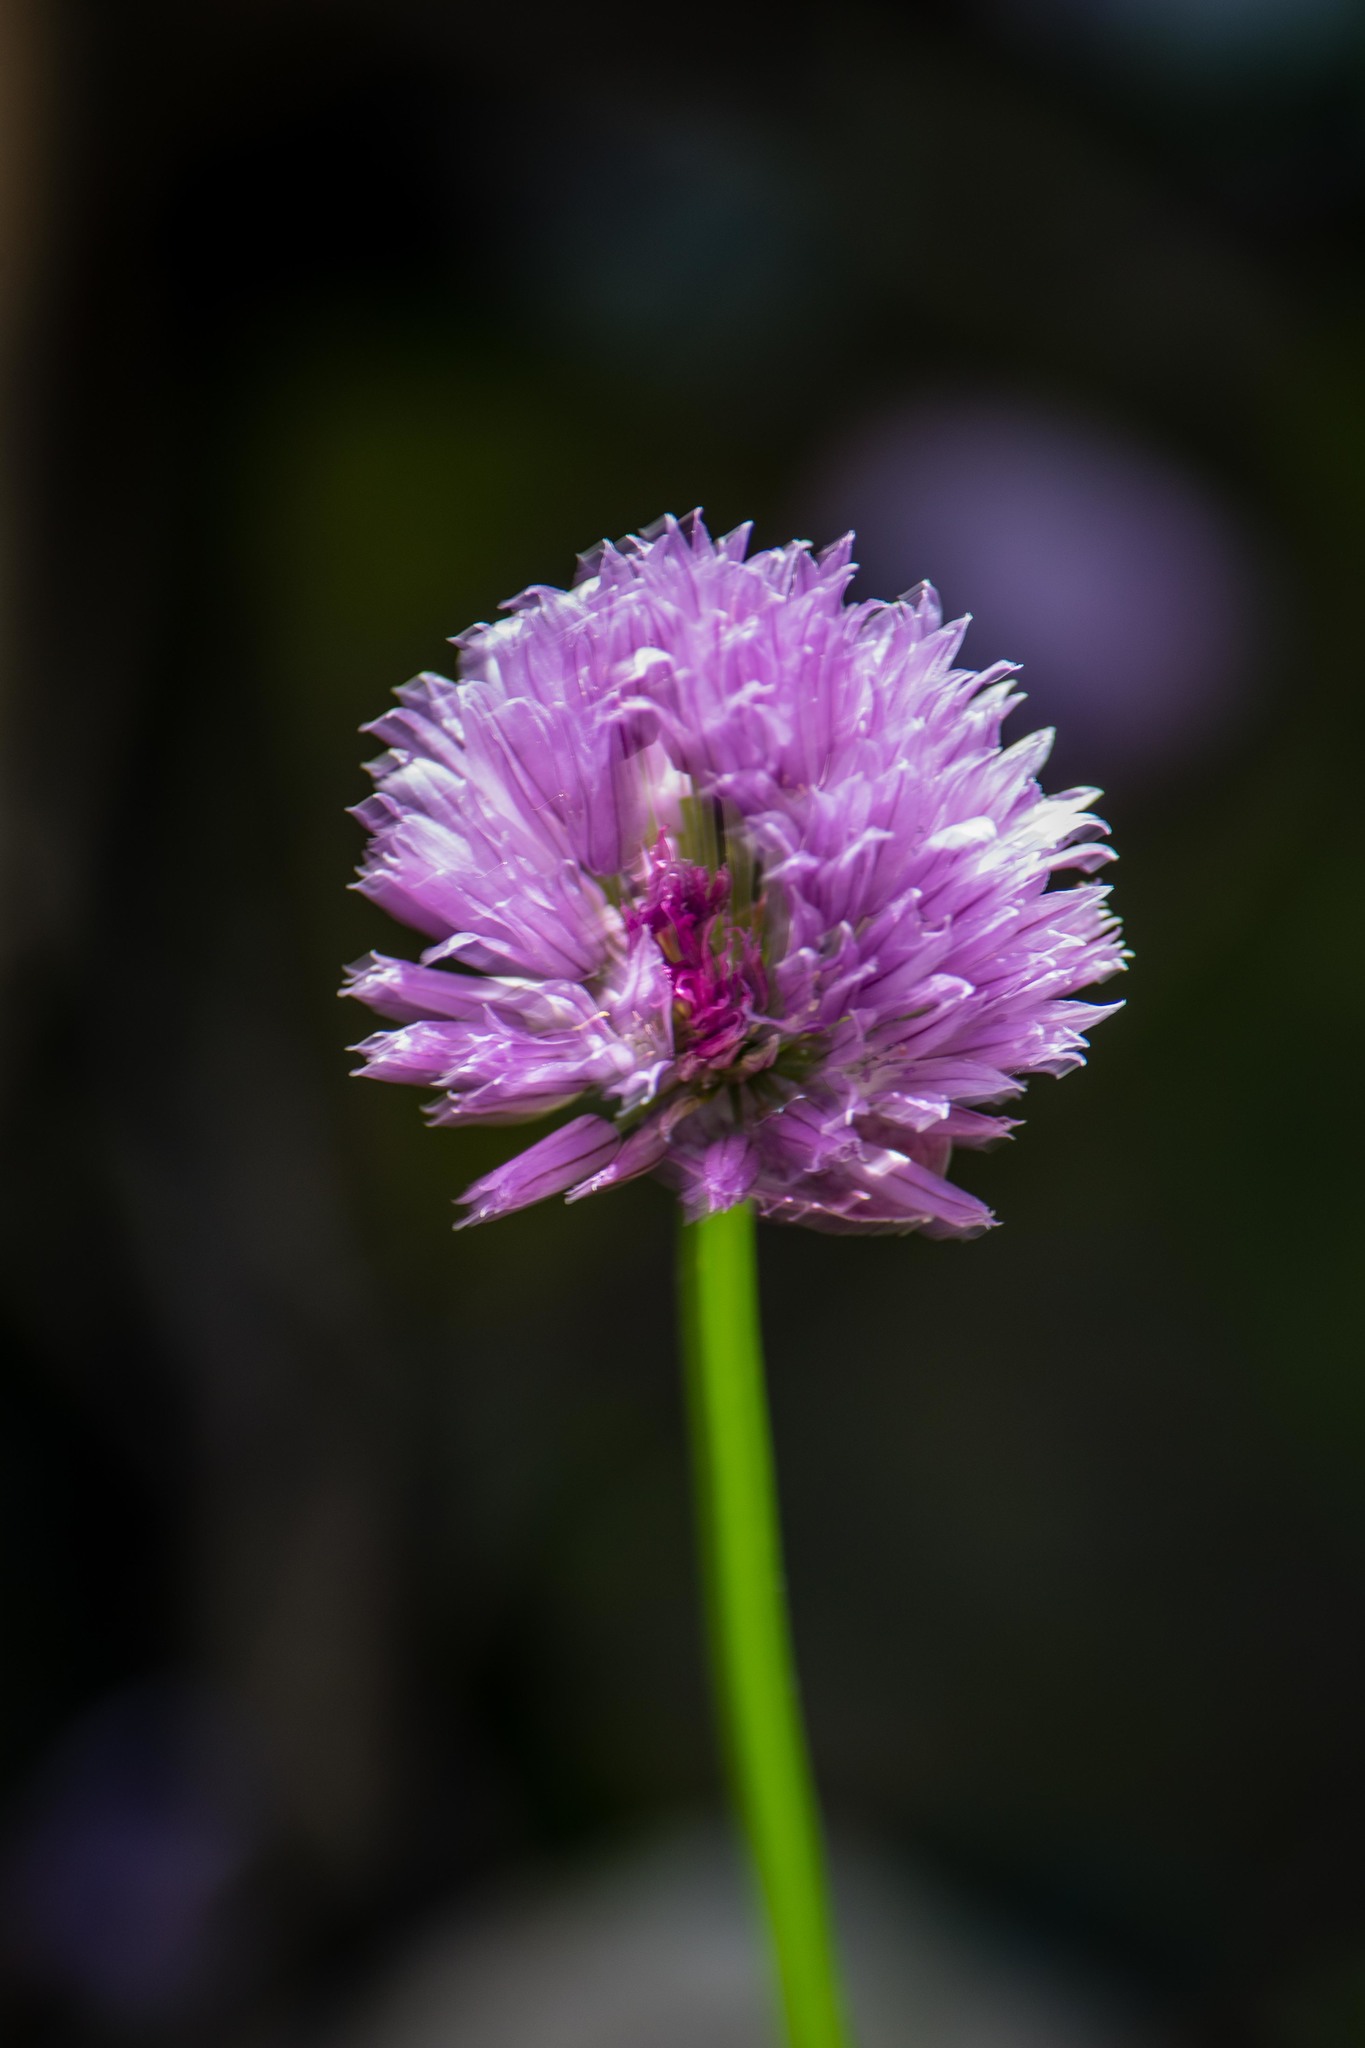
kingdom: Plantae
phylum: Tracheophyta
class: Liliopsida
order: Asparagales
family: Amaryllidaceae
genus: Allium
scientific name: Allium schoenoprasum
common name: Chives
